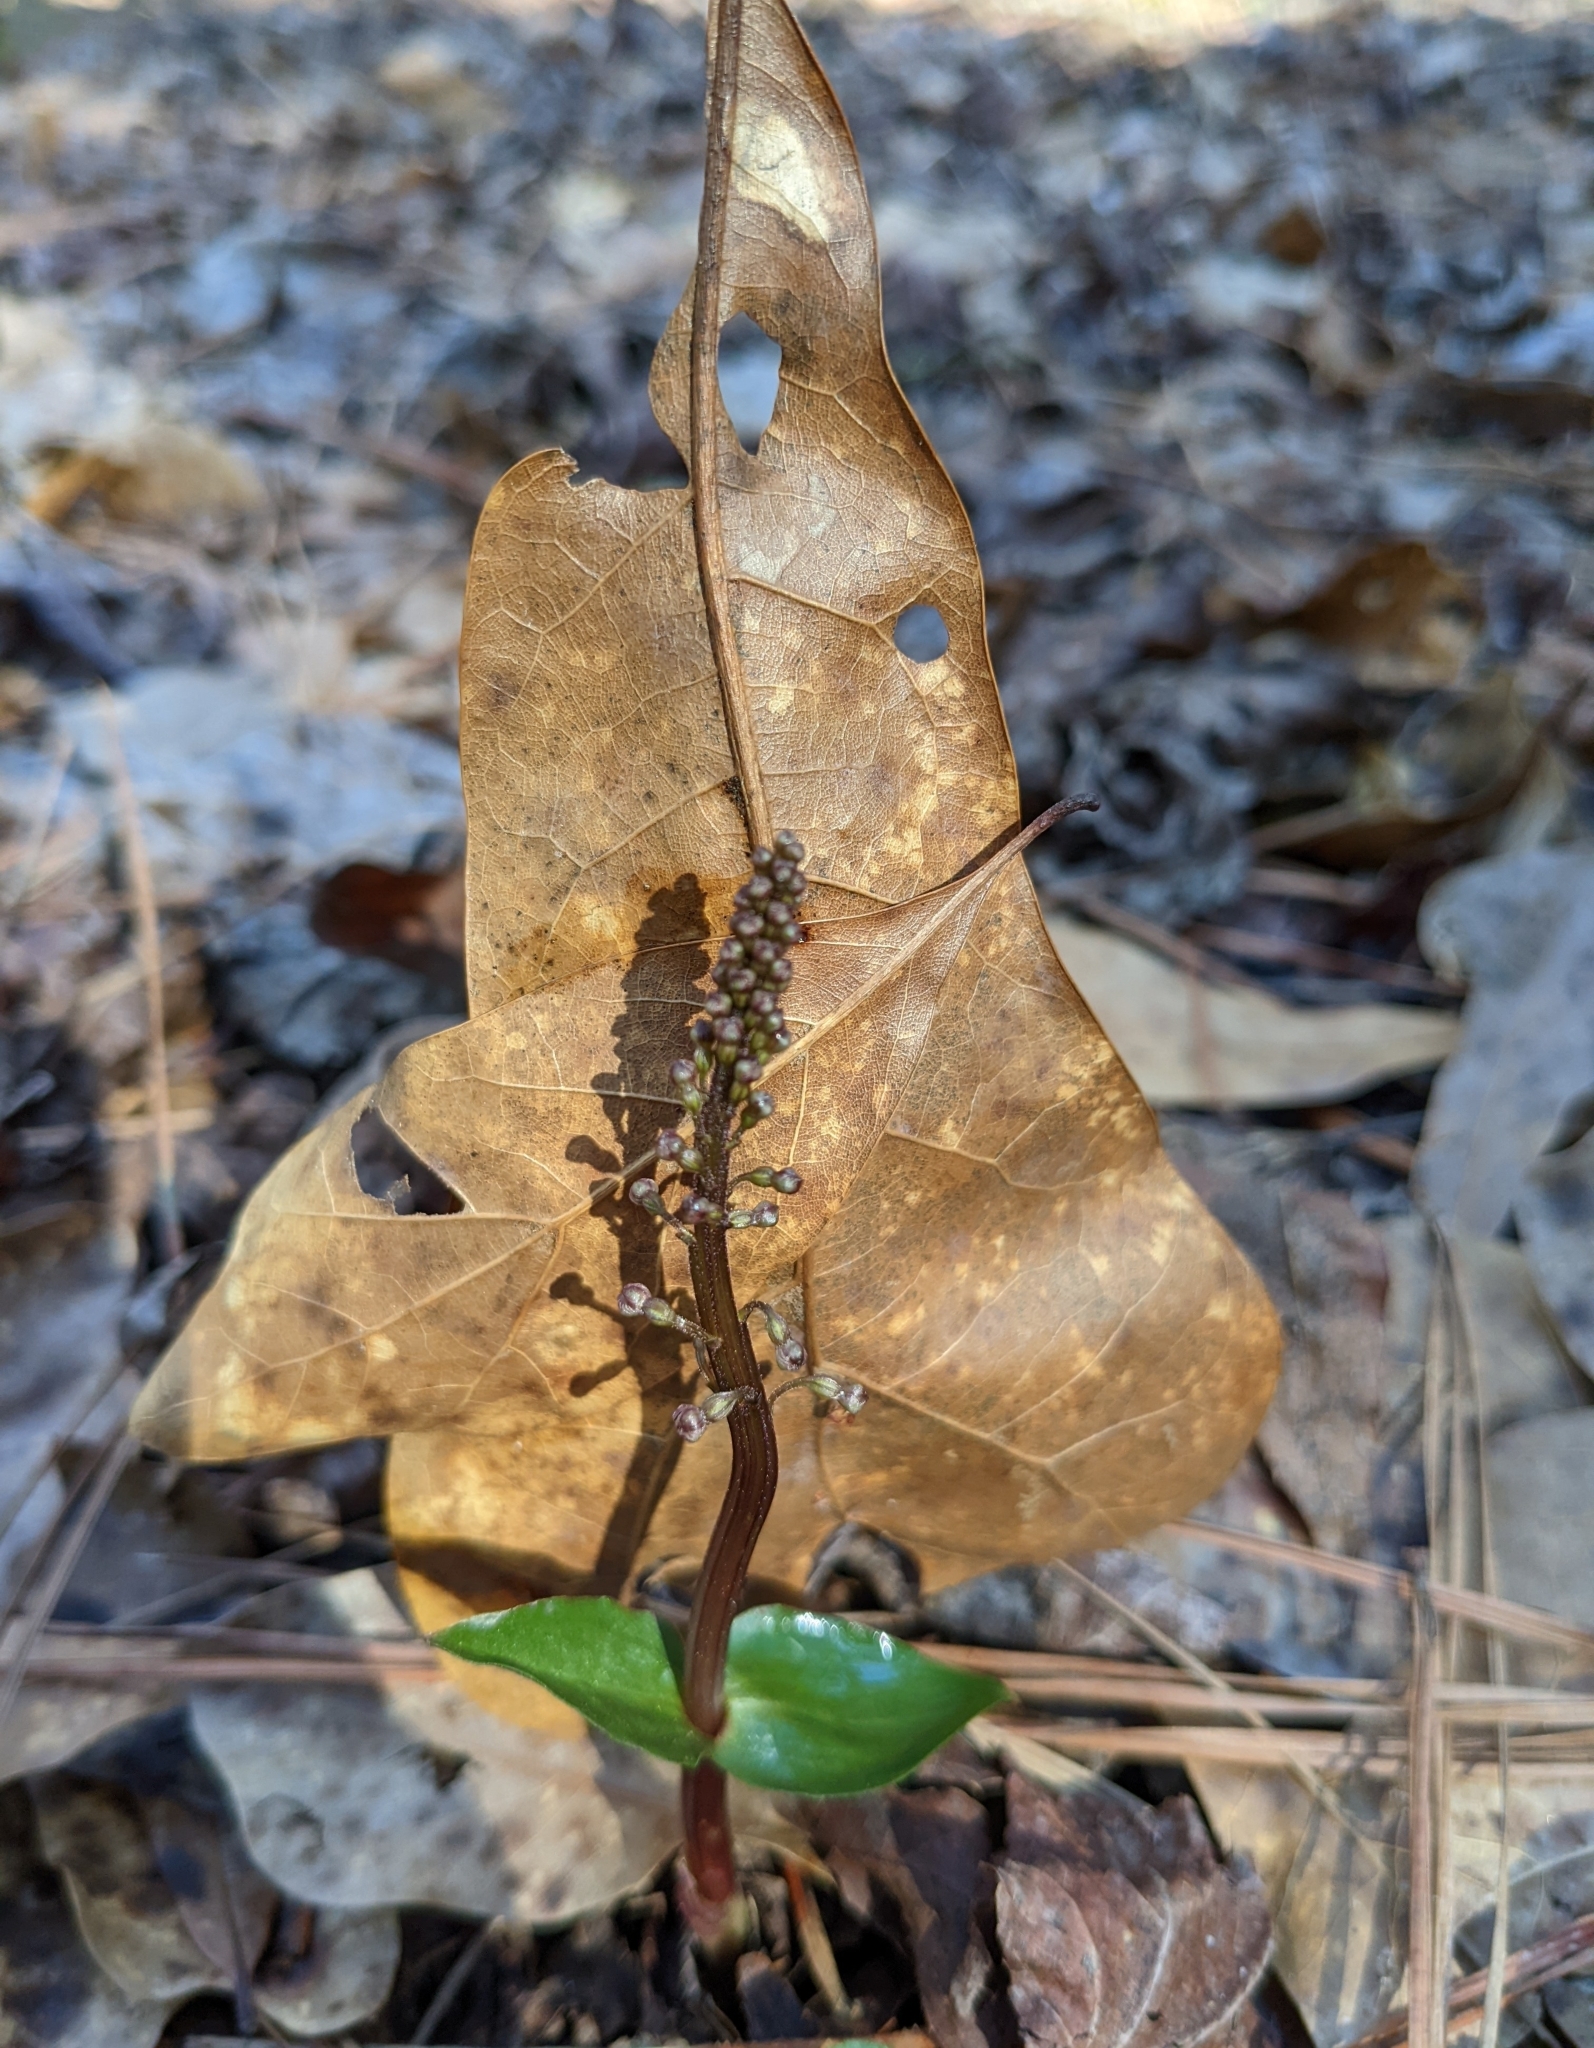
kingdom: Plantae
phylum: Tracheophyta
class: Liliopsida
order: Asparagales
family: Orchidaceae
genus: Neottia
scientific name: Neottia bifolia
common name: Southern twayblade
